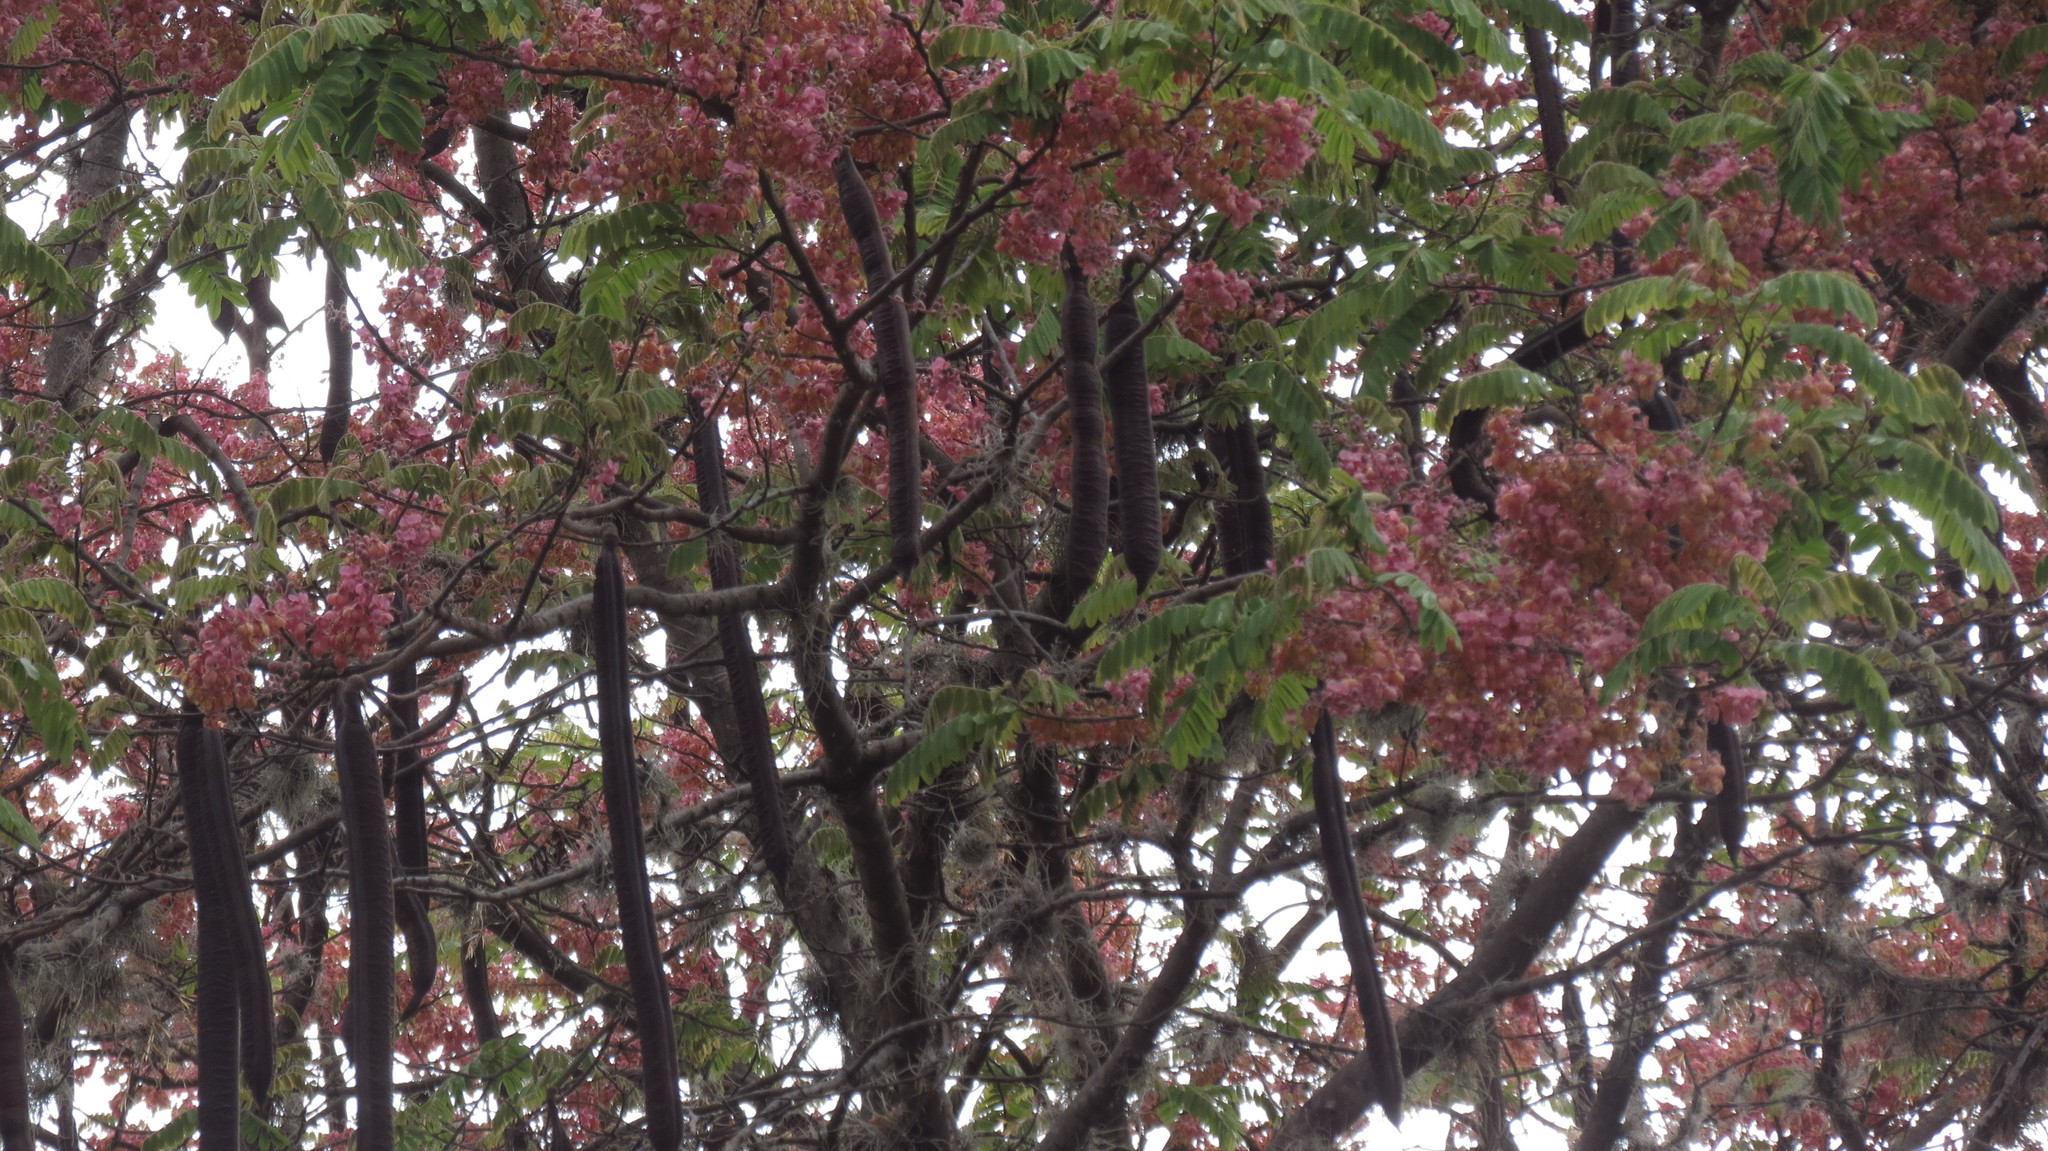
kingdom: Plantae
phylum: Tracheophyta
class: Magnoliopsida
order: Fabales
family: Fabaceae
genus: Cassia
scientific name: Cassia grandis
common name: Appleblossom cassia
